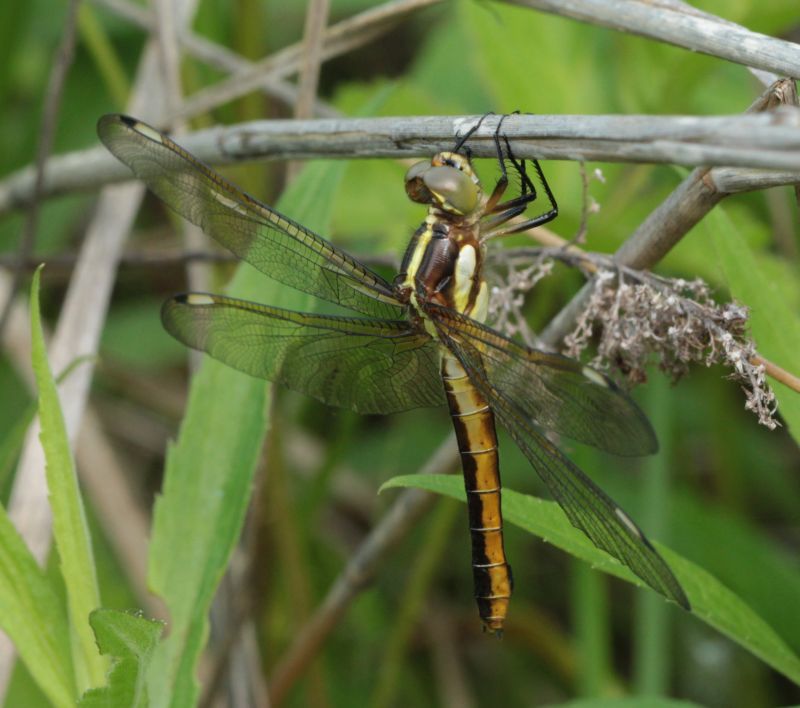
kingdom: Animalia
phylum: Arthropoda
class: Insecta
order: Odonata
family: Libellulidae
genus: Libellula
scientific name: Libellula cyanea
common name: Spangled skimmer
